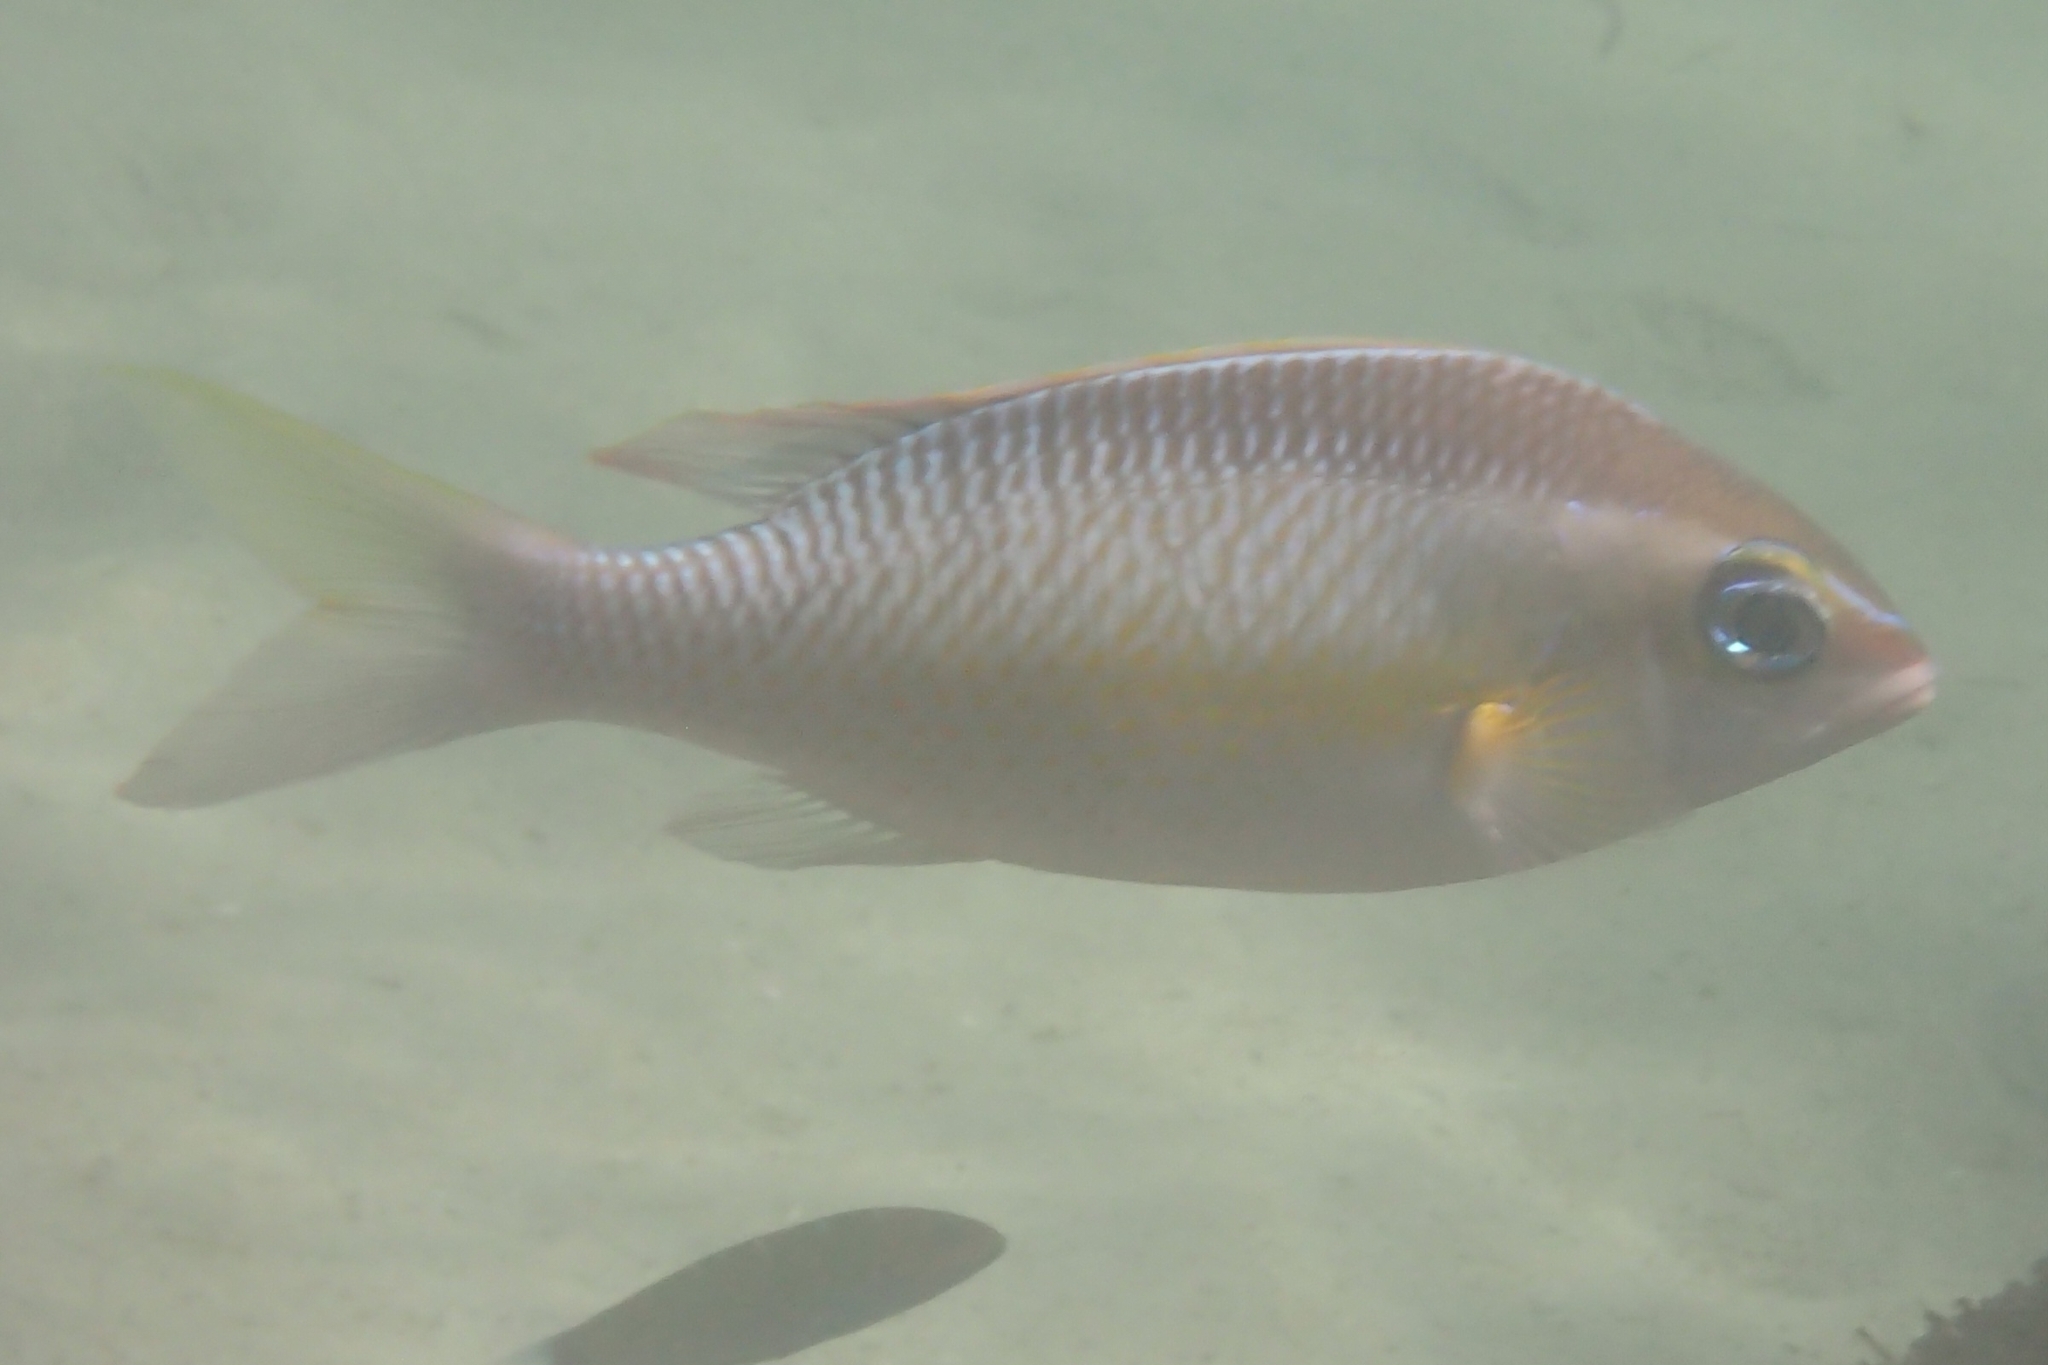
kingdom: Animalia
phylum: Chordata
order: Perciformes
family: Nemipteridae
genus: Scolopsis
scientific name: Scolopsis margaritifera
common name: Pearly monocle bream
